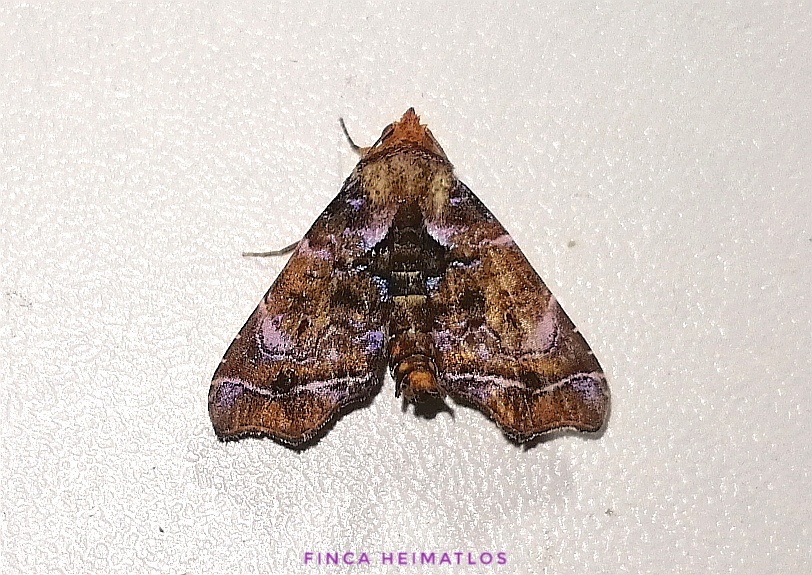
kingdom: Animalia
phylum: Arthropoda
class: Insecta
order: Lepidoptera
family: Erebidae
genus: Cecharismena
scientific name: Cecharismena melicerta
